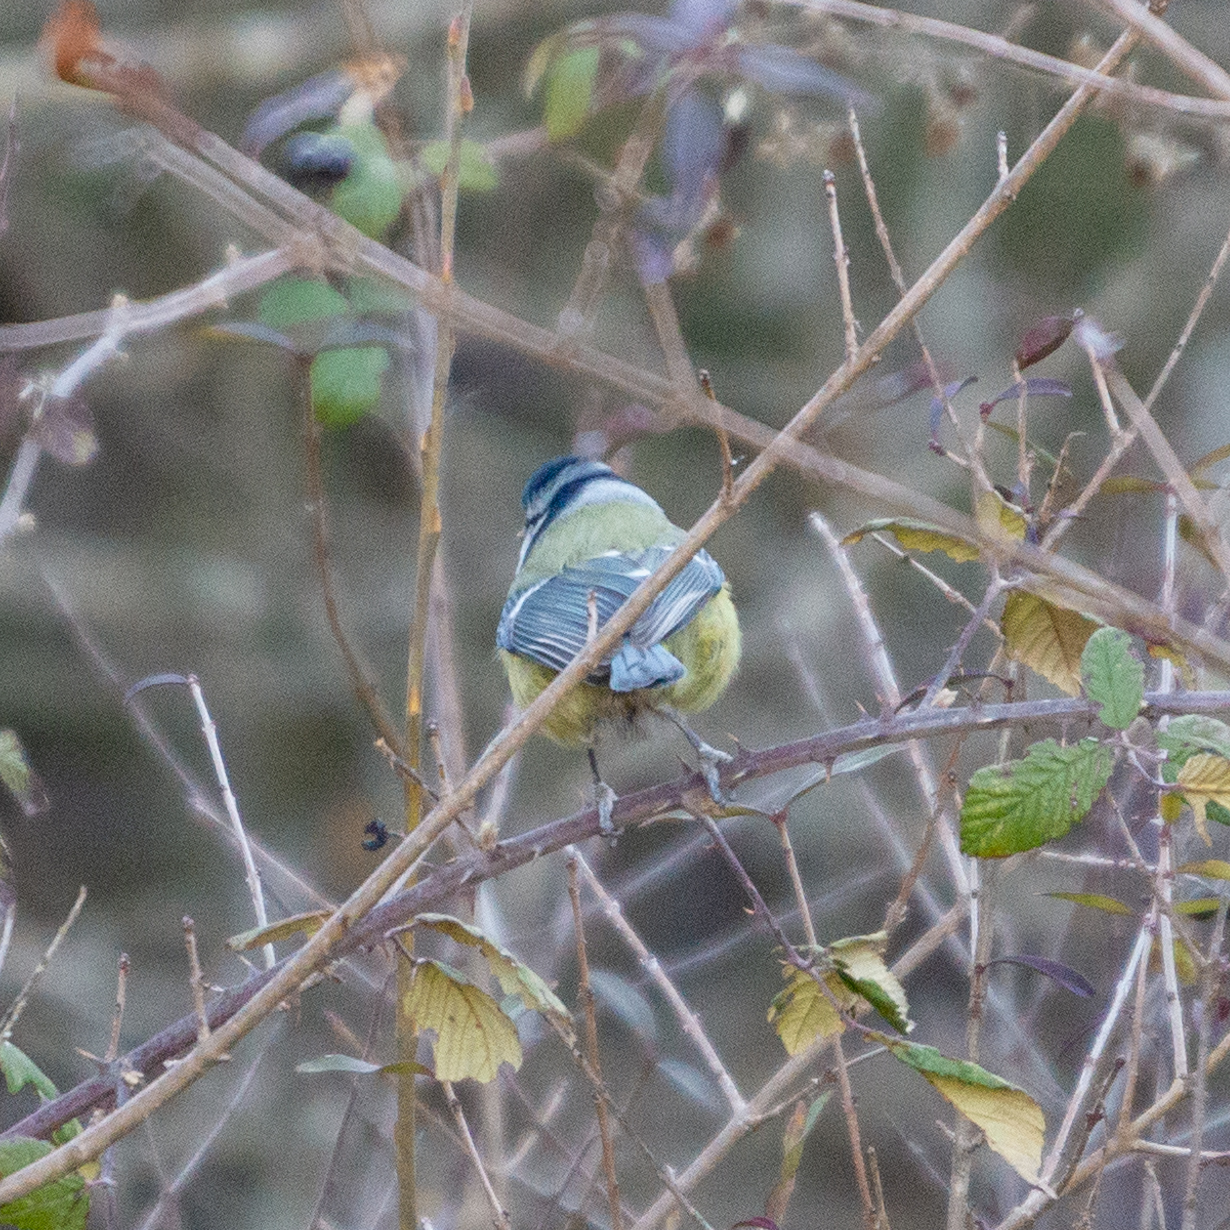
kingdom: Animalia
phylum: Chordata
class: Aves
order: Passeriformes
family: Paridae
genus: Cyanistes
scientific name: Cyanistes caeruleus
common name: Eurasian blue tit
